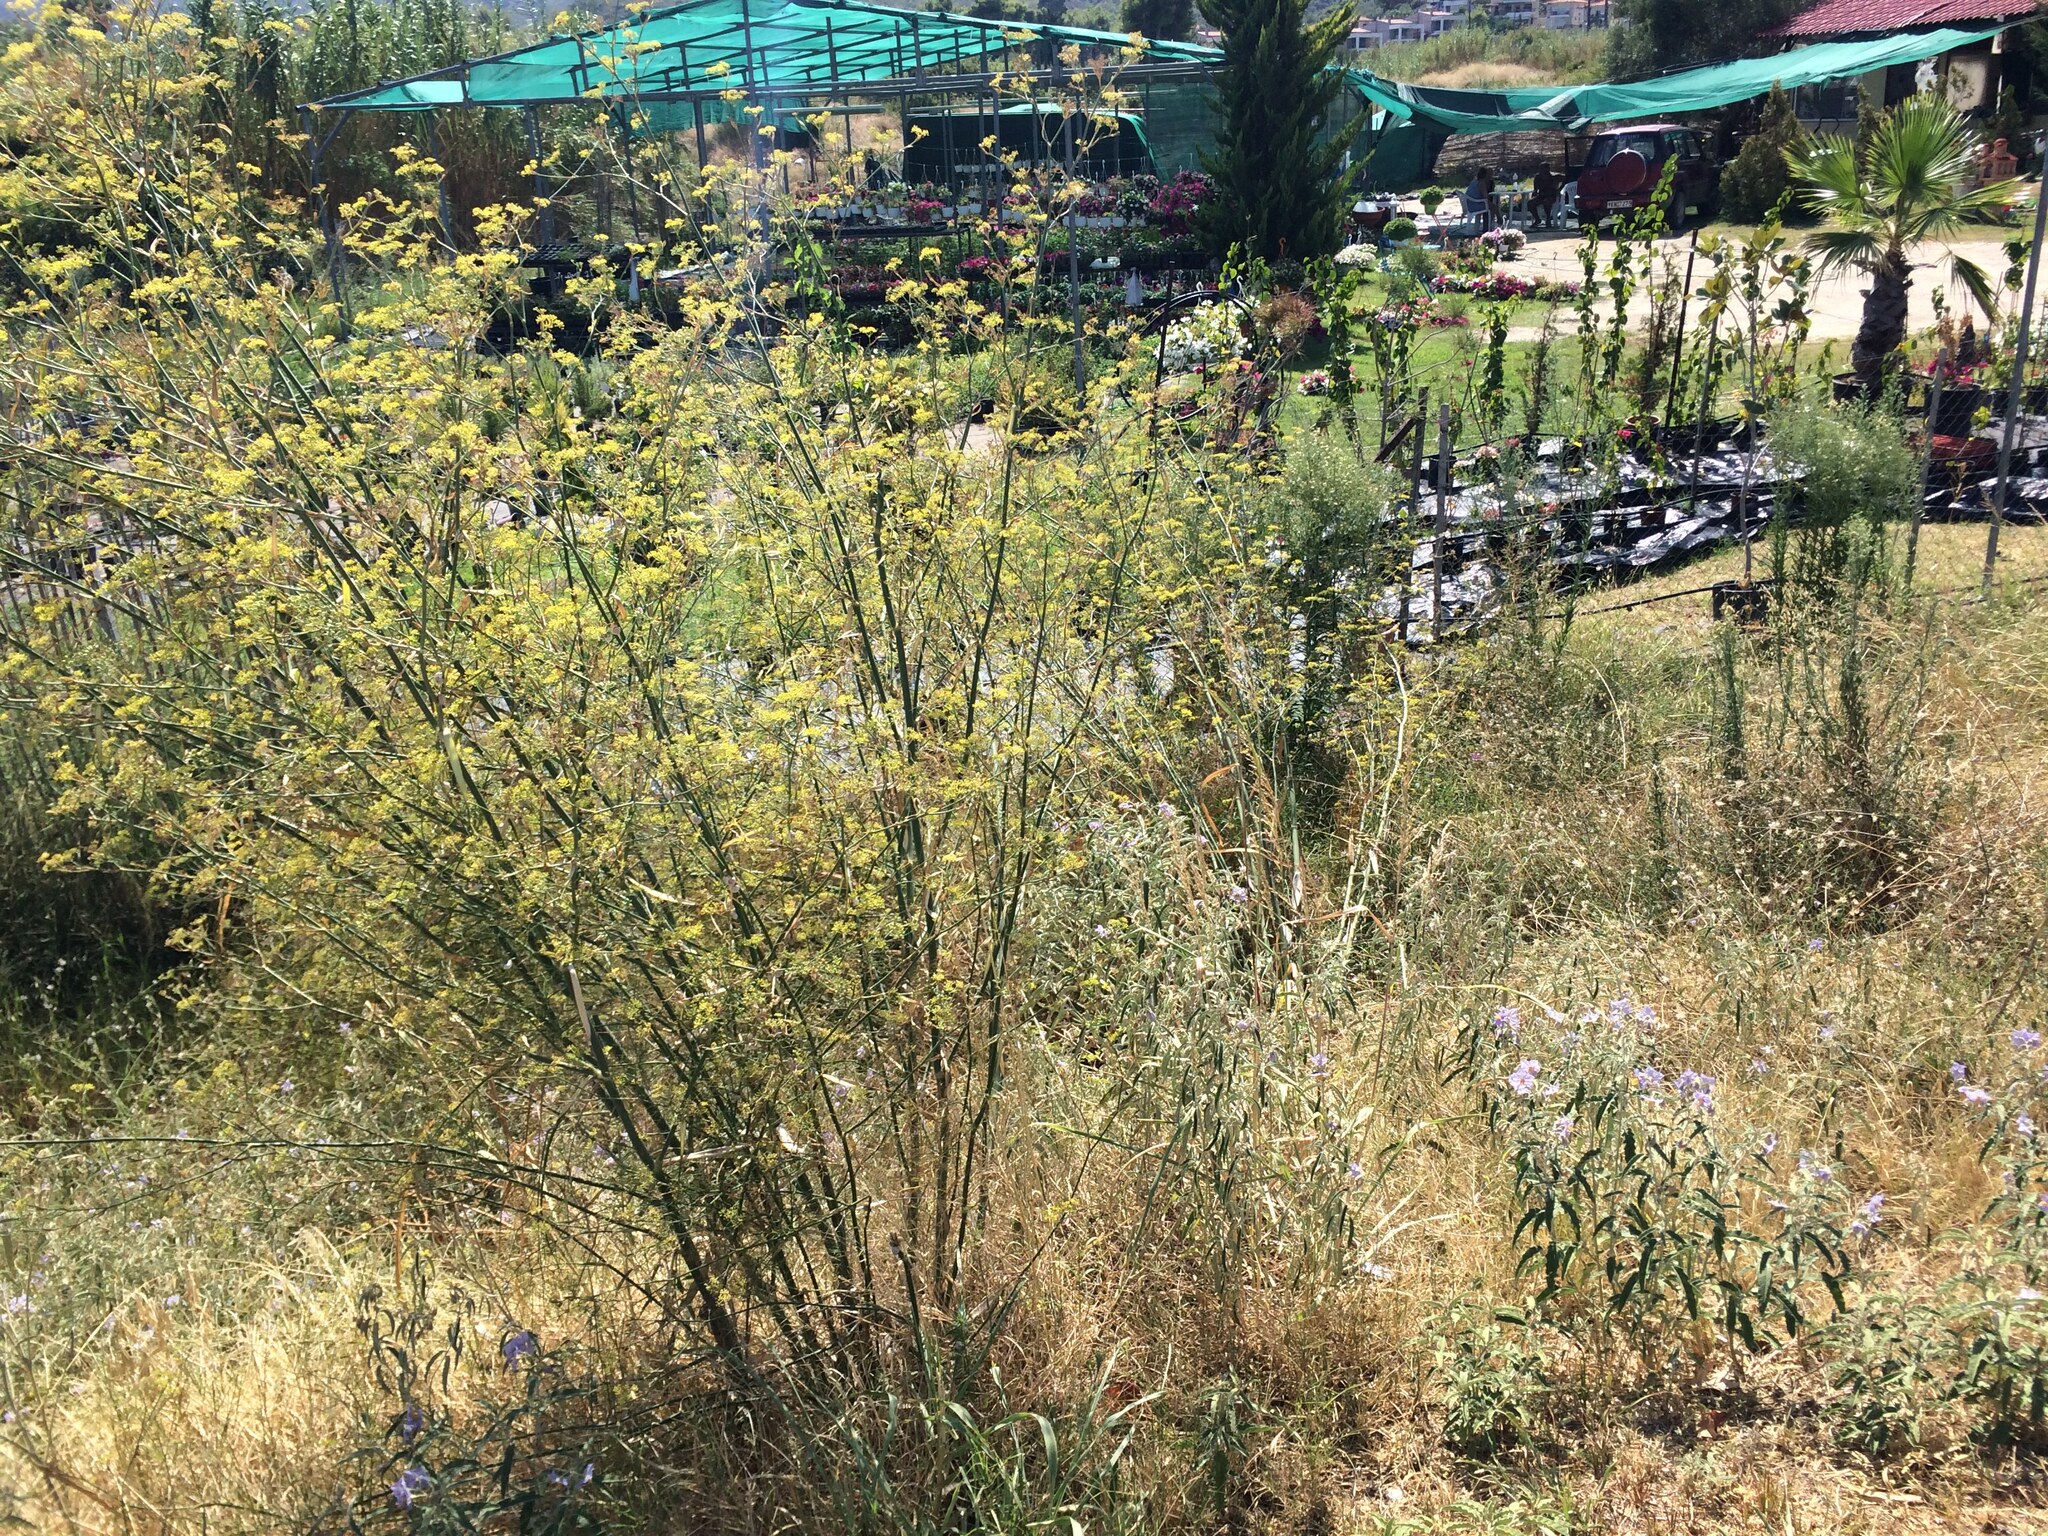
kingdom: Plantae
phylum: Tracheophyta
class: Magnoliopsida
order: Apiales
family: Apiaceae
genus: Foeniculum
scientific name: Foeniculum vulgare
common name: Fennel
